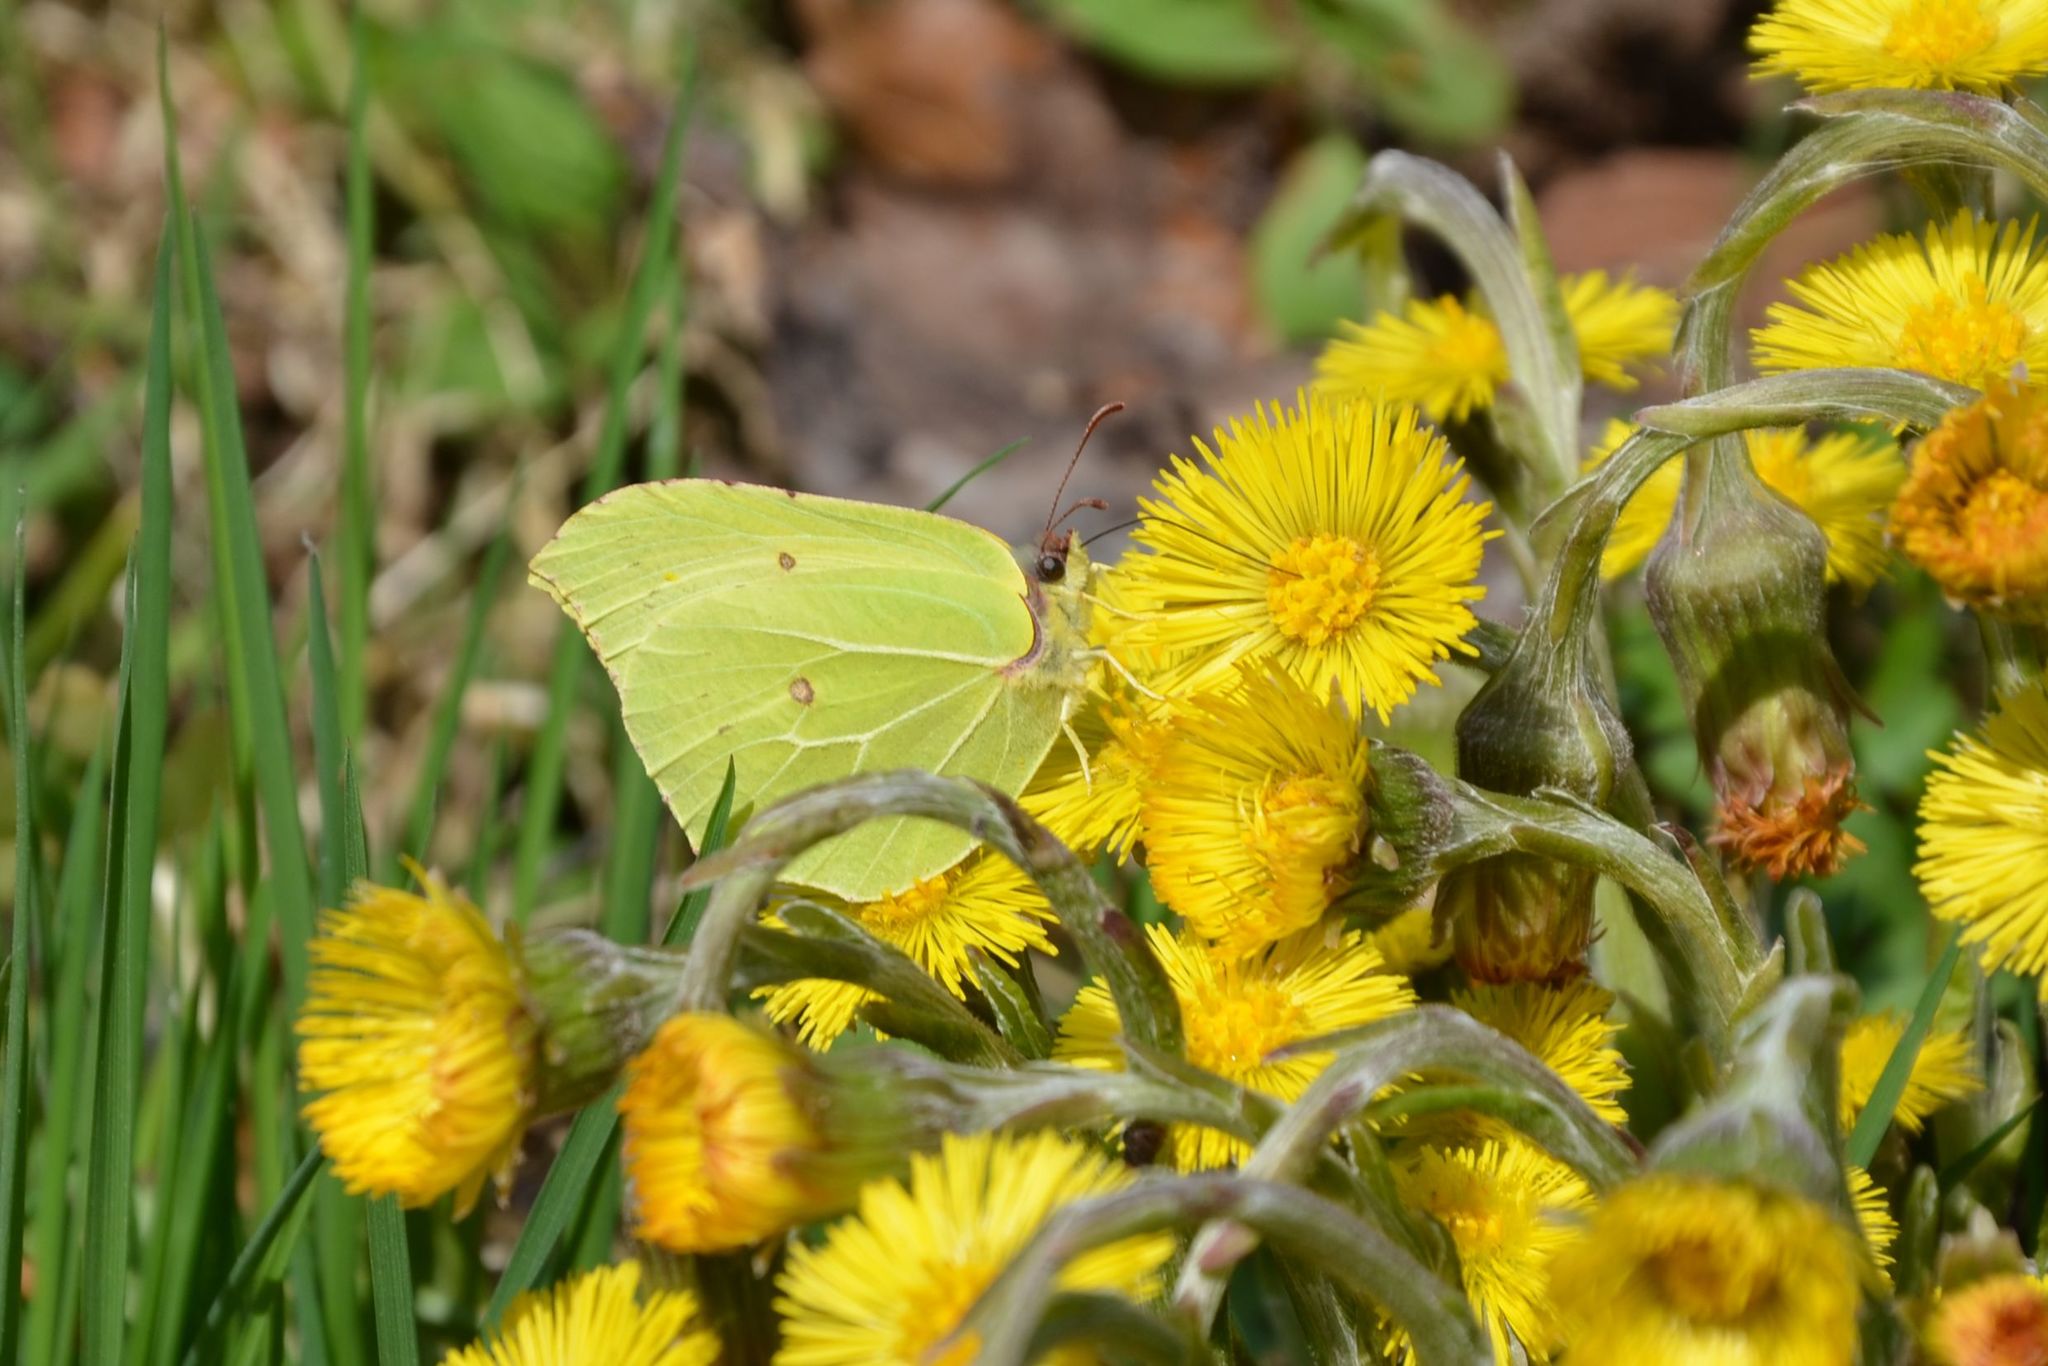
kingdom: Animalia
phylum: Arthropoda
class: Insecta
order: Lepidoptera
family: Pieridae
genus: Gonepteryx
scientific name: Gonepteryx rhamni
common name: Brimstone
